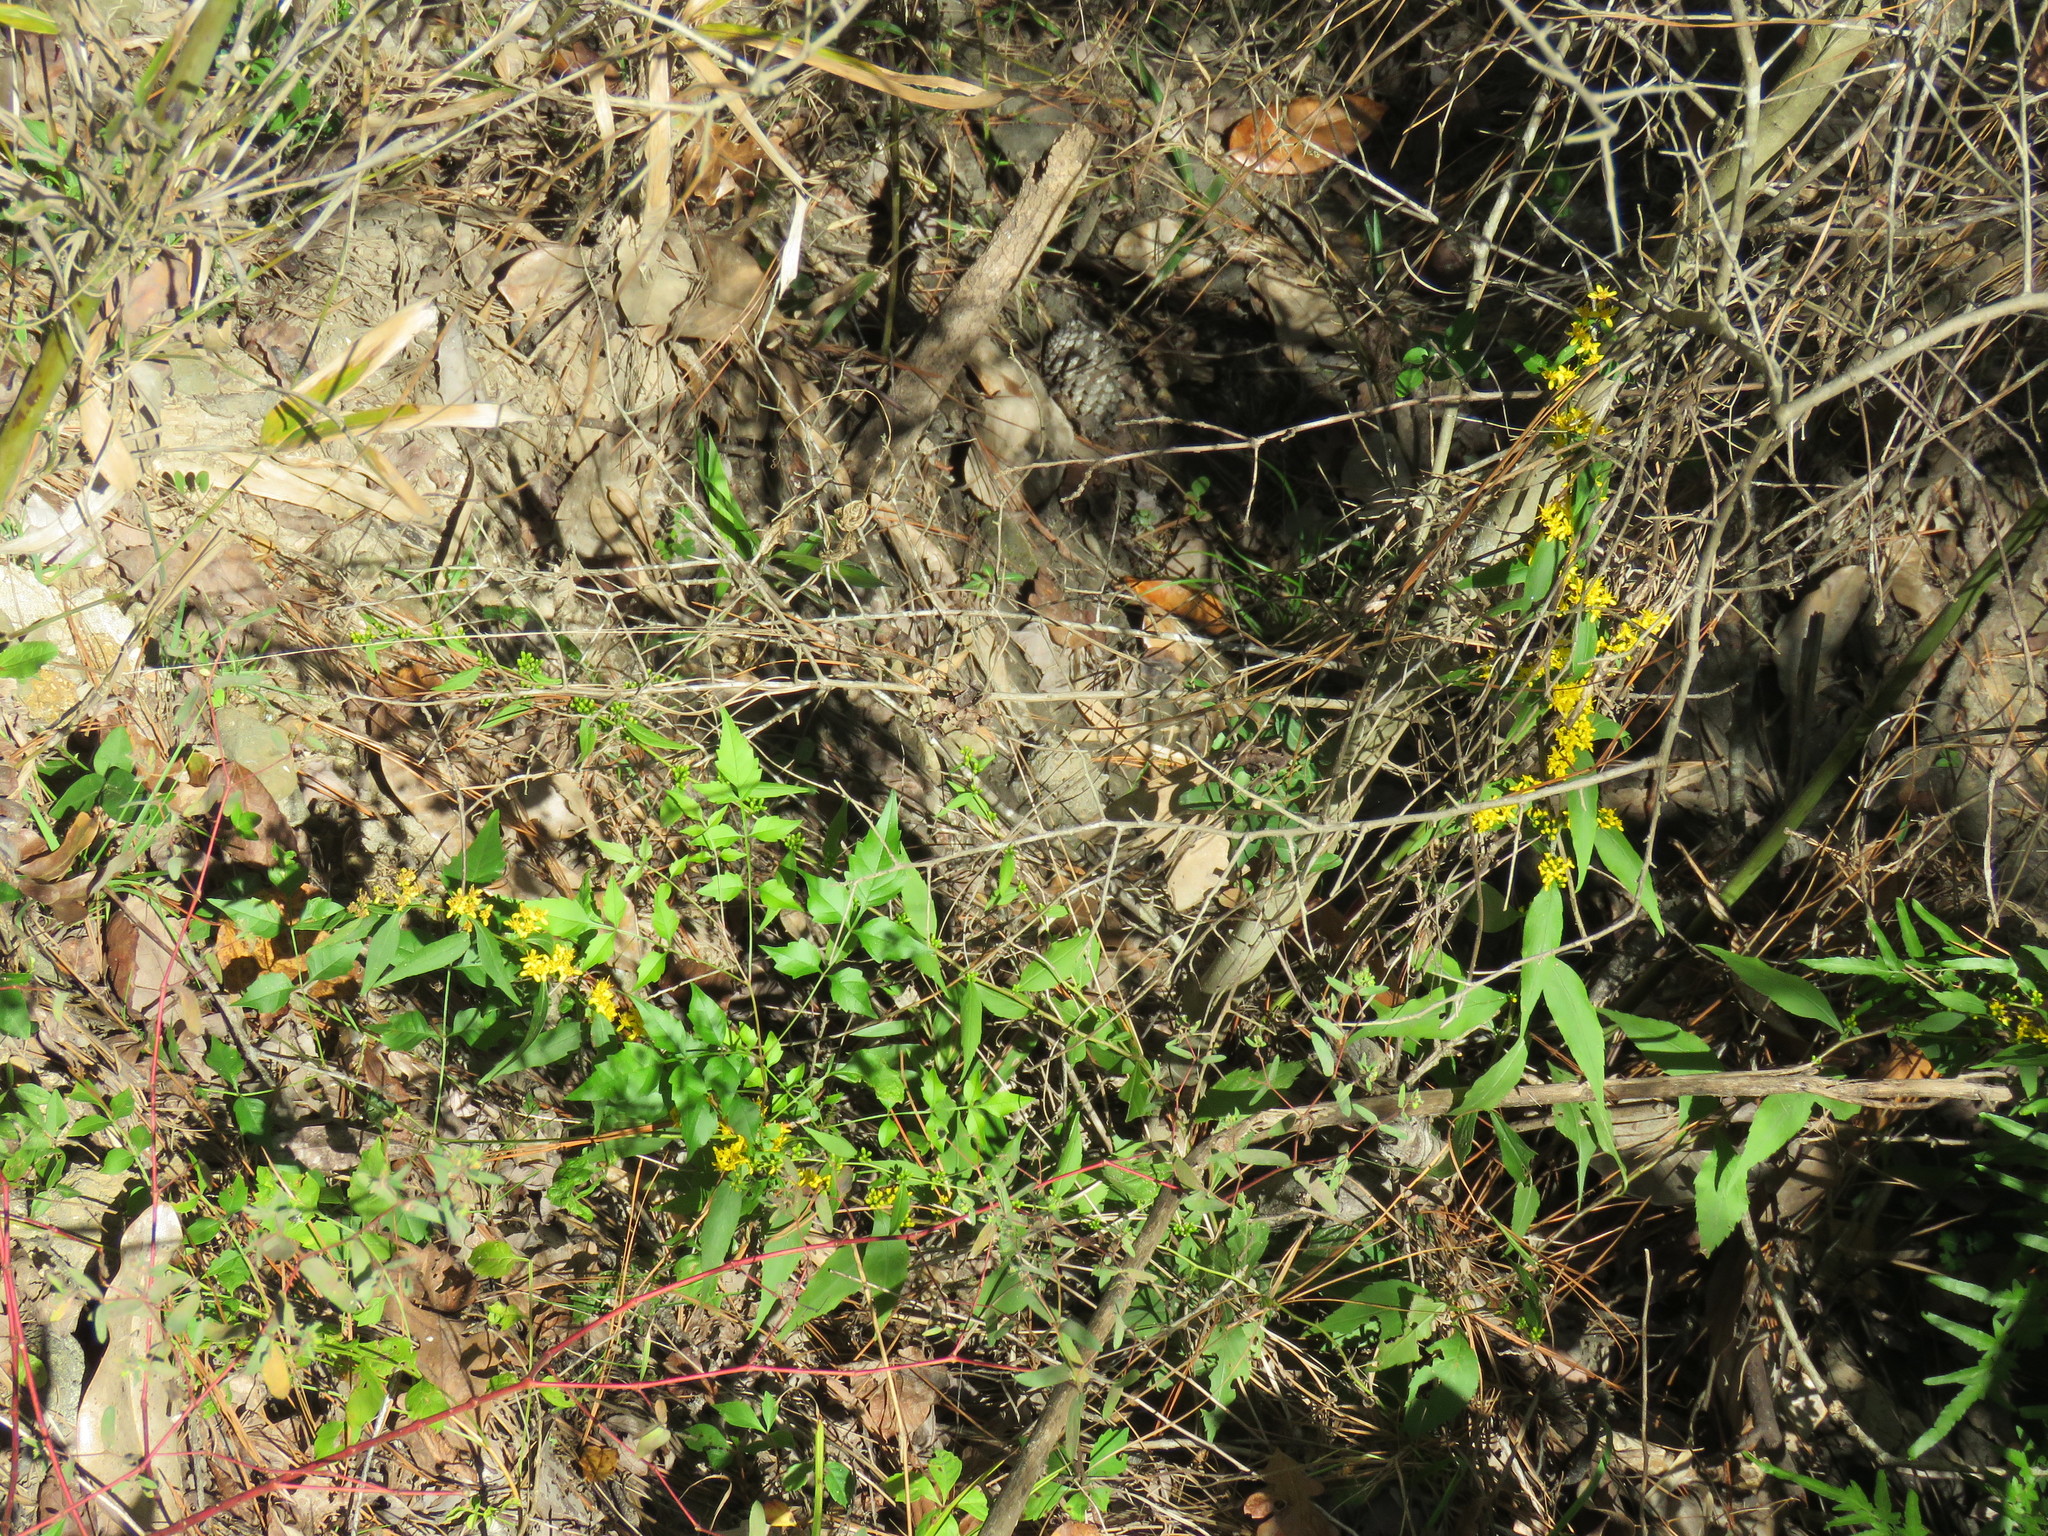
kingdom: Plantae
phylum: Tracheophyta
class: Magnoliopsida
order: Asterales
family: Asteraceae
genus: Solidago
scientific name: Solidago caesia
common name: Woodland goldenrod
